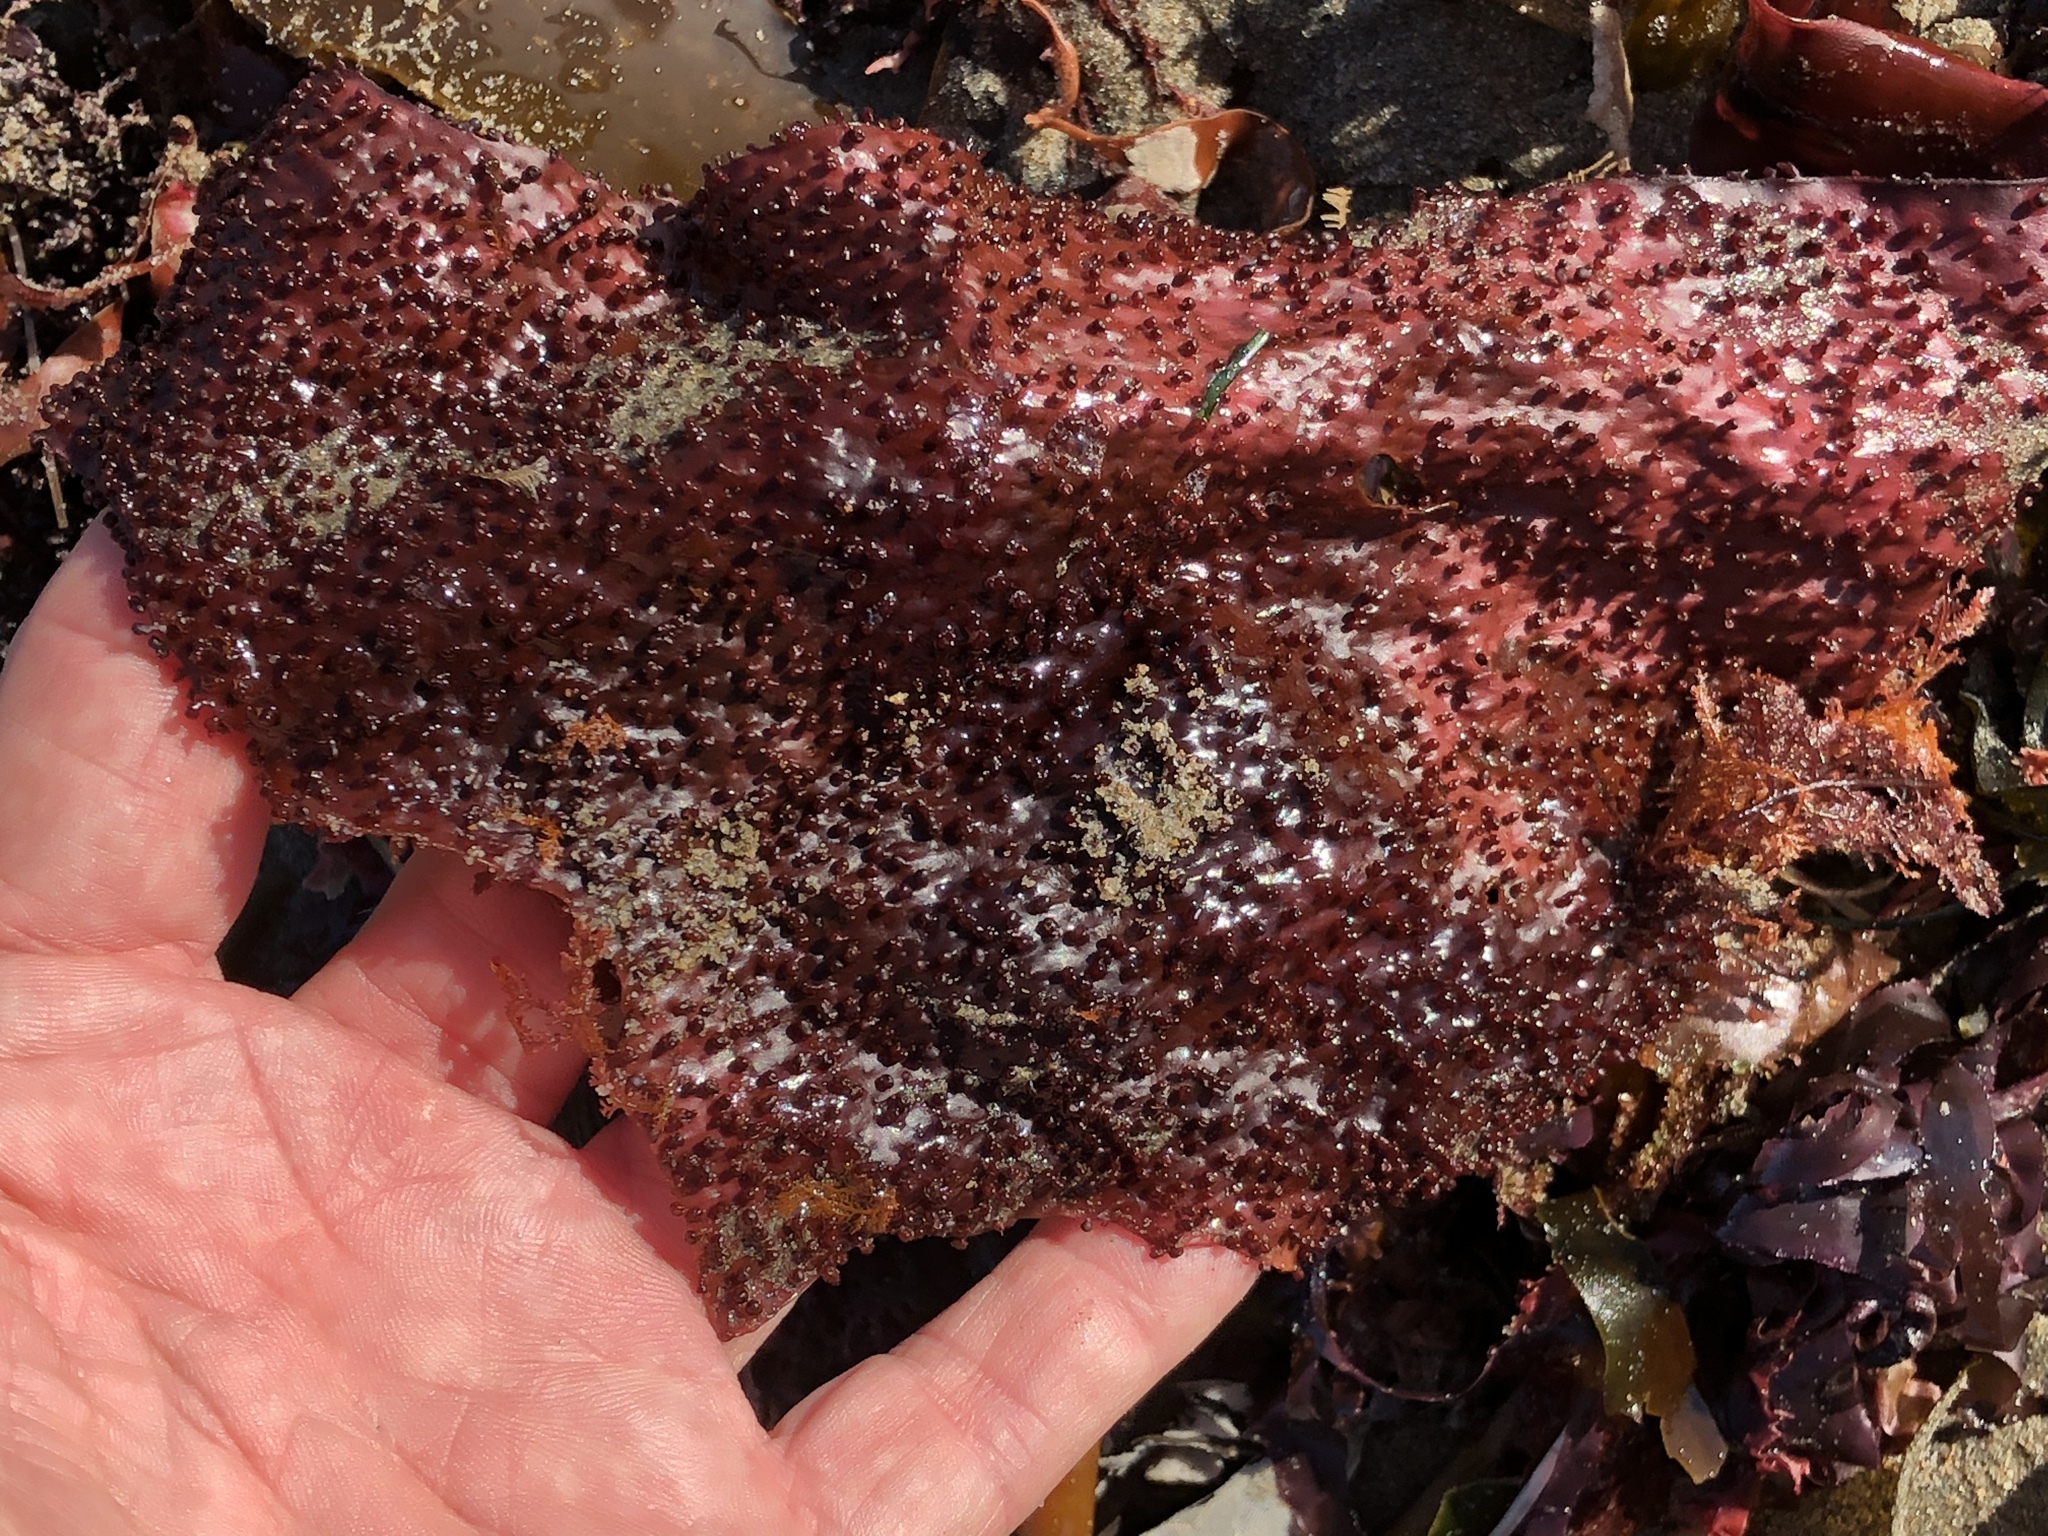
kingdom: Plantae
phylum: Rhodophyta
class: Florideophyceae
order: Gigartinales
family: Gigartinaceae
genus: Chondracanthus
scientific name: Chondracanthus exasperatus
